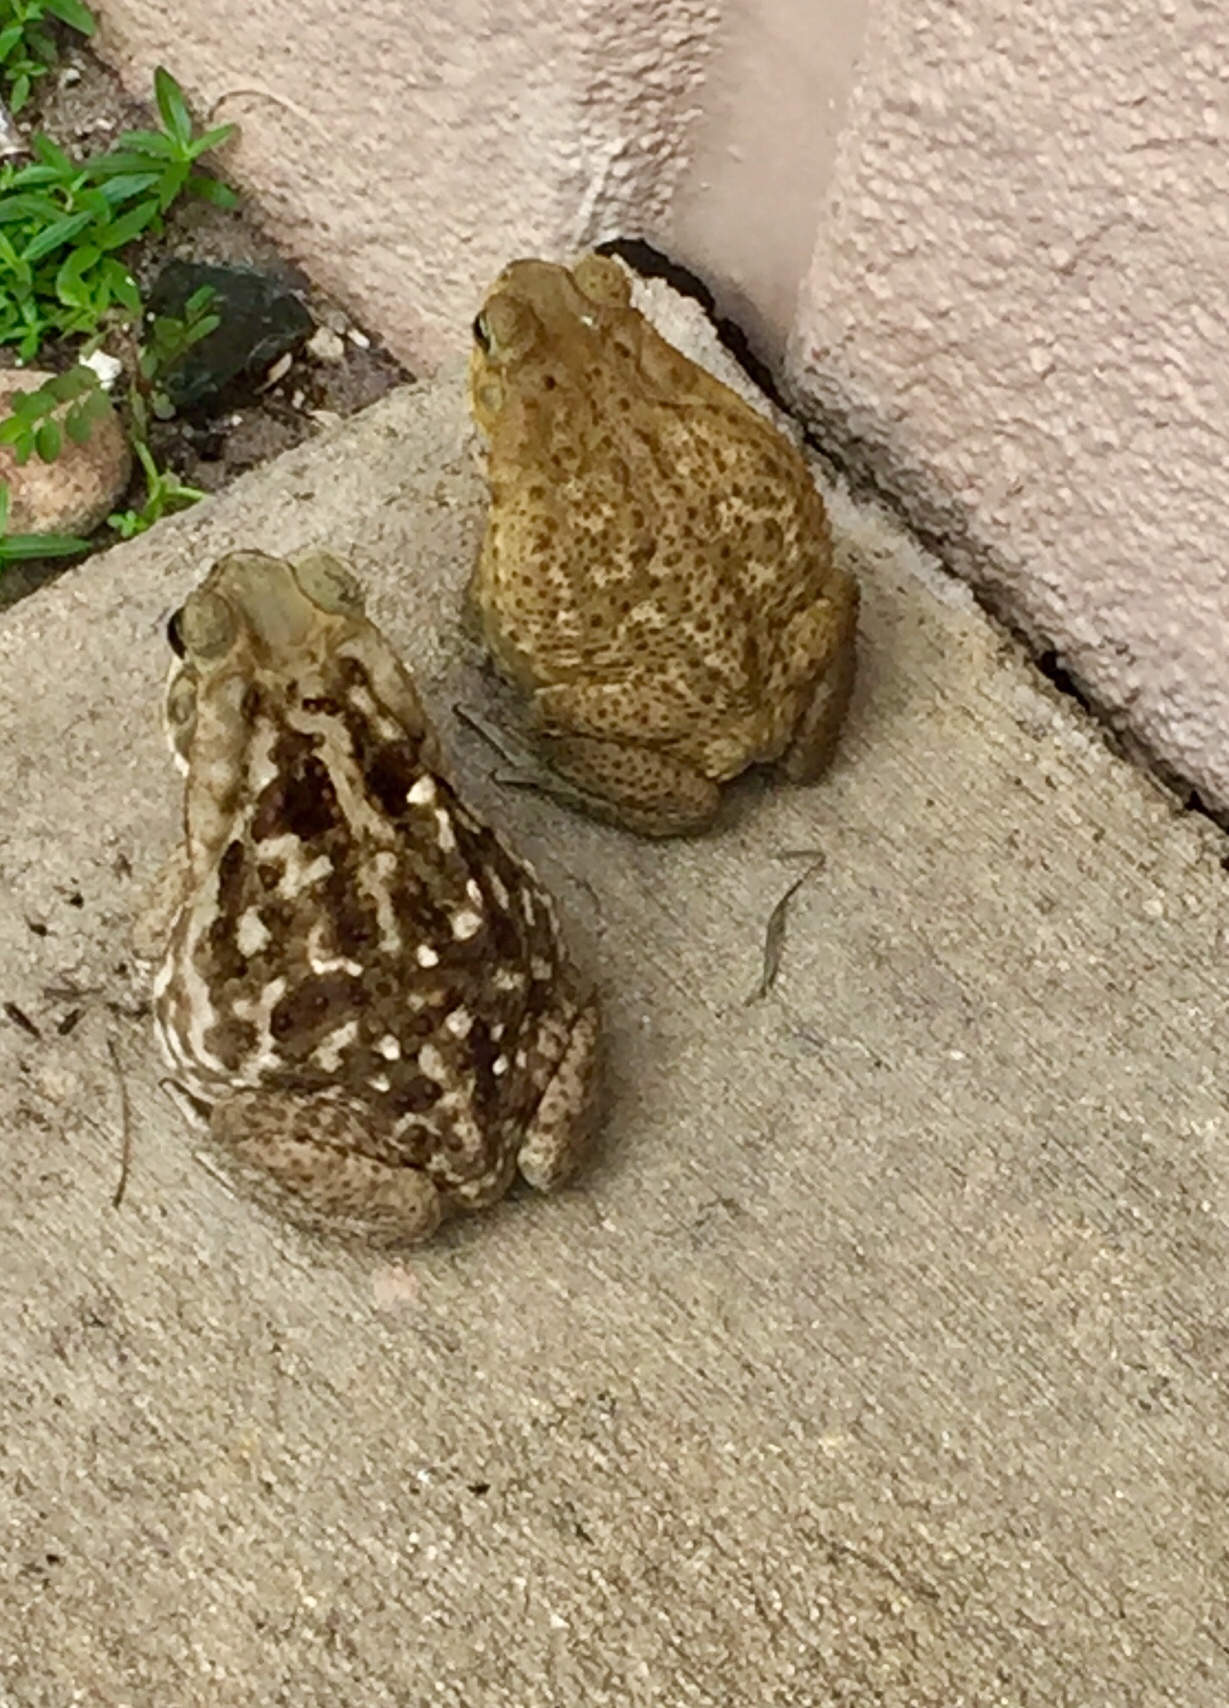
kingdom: Animalia
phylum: Chordata
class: Amphibia
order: Anura
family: Bufonidae
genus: Rhinella
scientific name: Rhinella marina
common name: Cane toad
